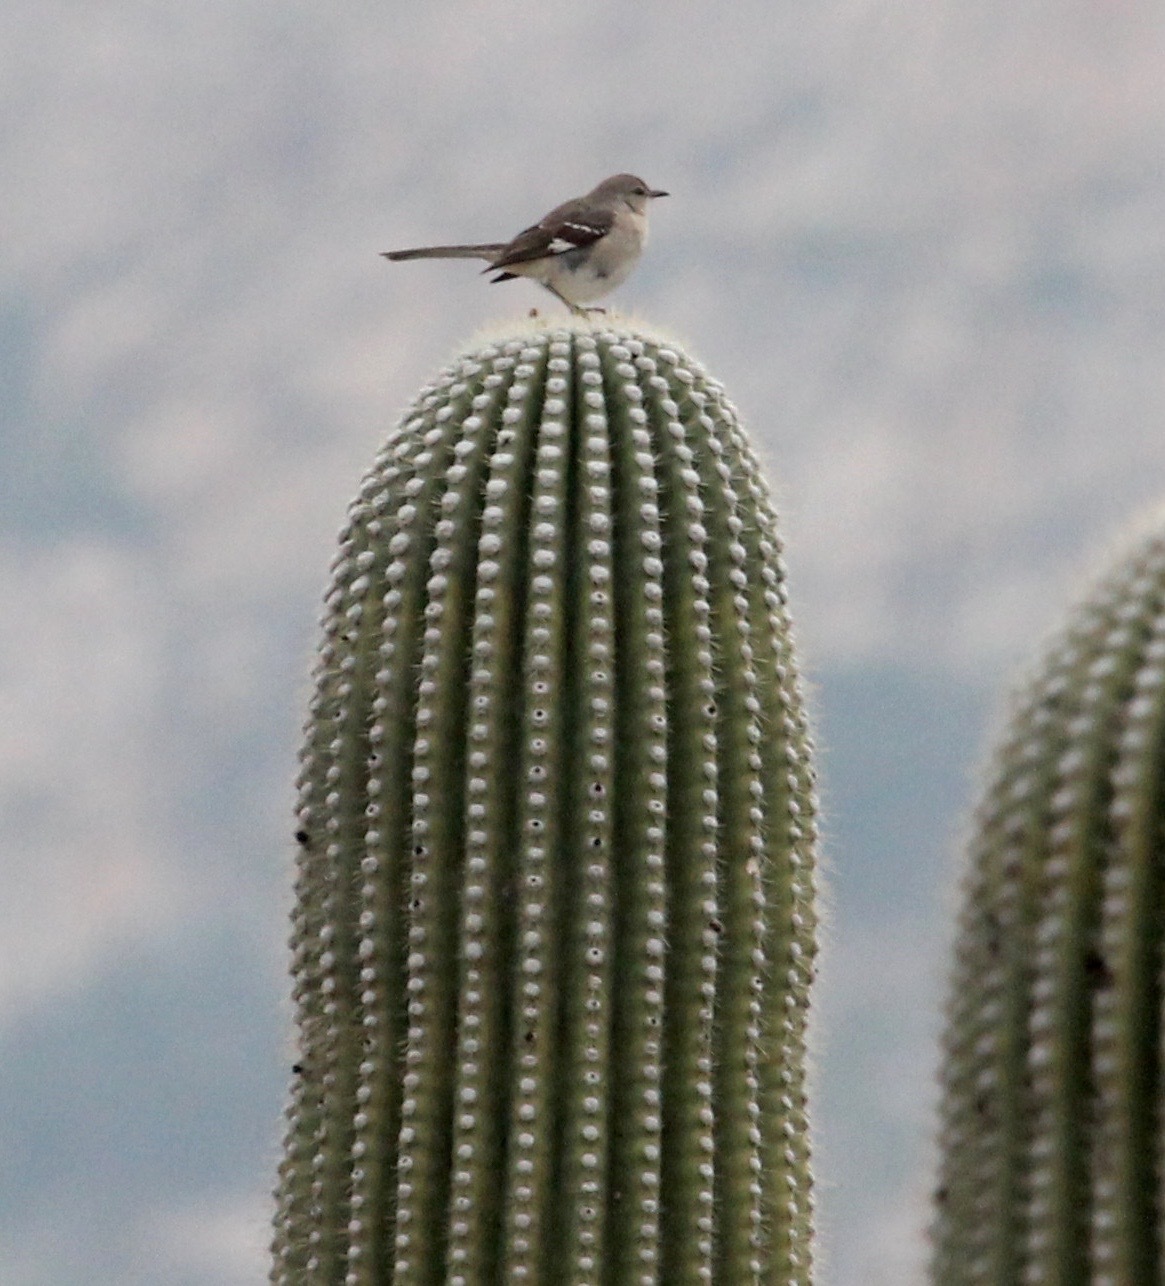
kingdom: Animalia
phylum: Chordata
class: Aves
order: Passeriformes
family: Mimidae
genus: Mimus
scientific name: Mimus polyglottos
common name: Northern mockingbird
